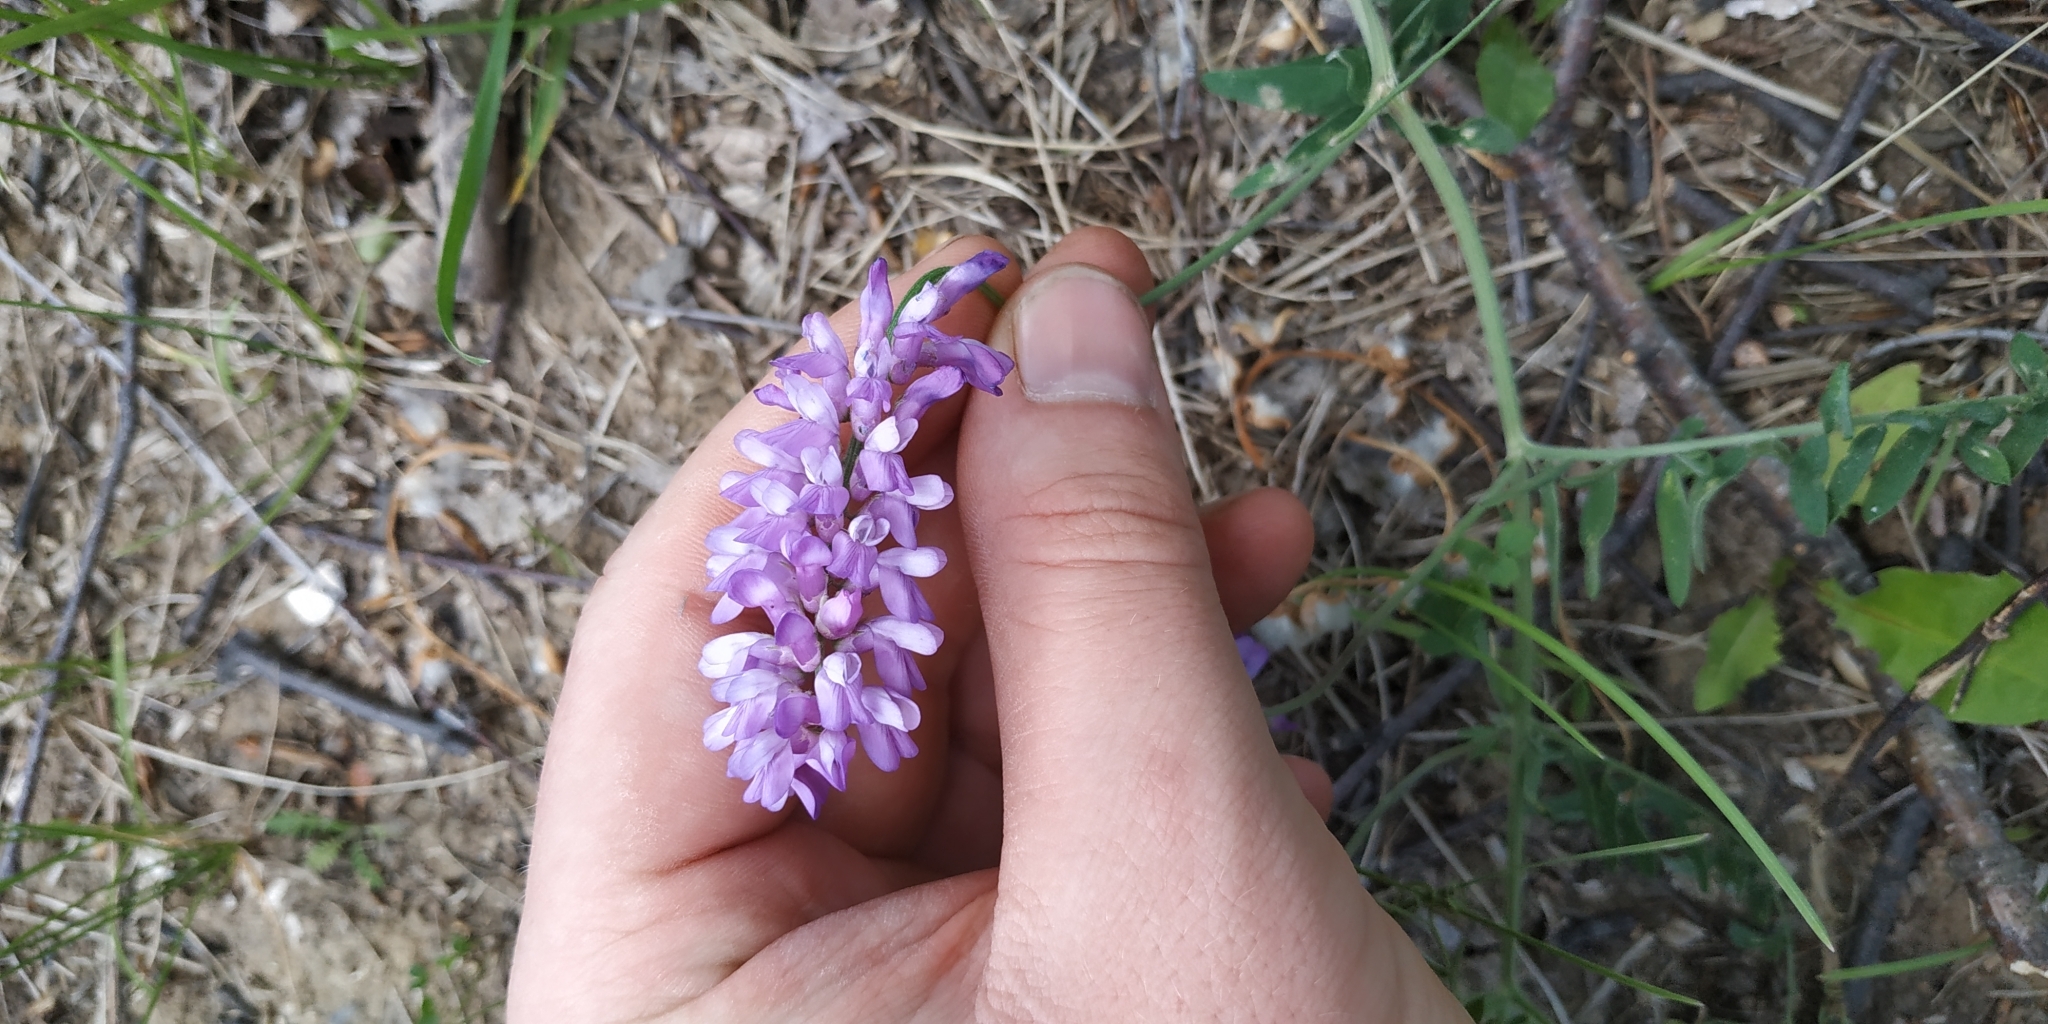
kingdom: Plantae
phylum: Tracheophyta
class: Magnoliopsida
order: Fabales
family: Fabaceae
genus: Vicia
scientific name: Vicia cracca
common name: Bird vetch
